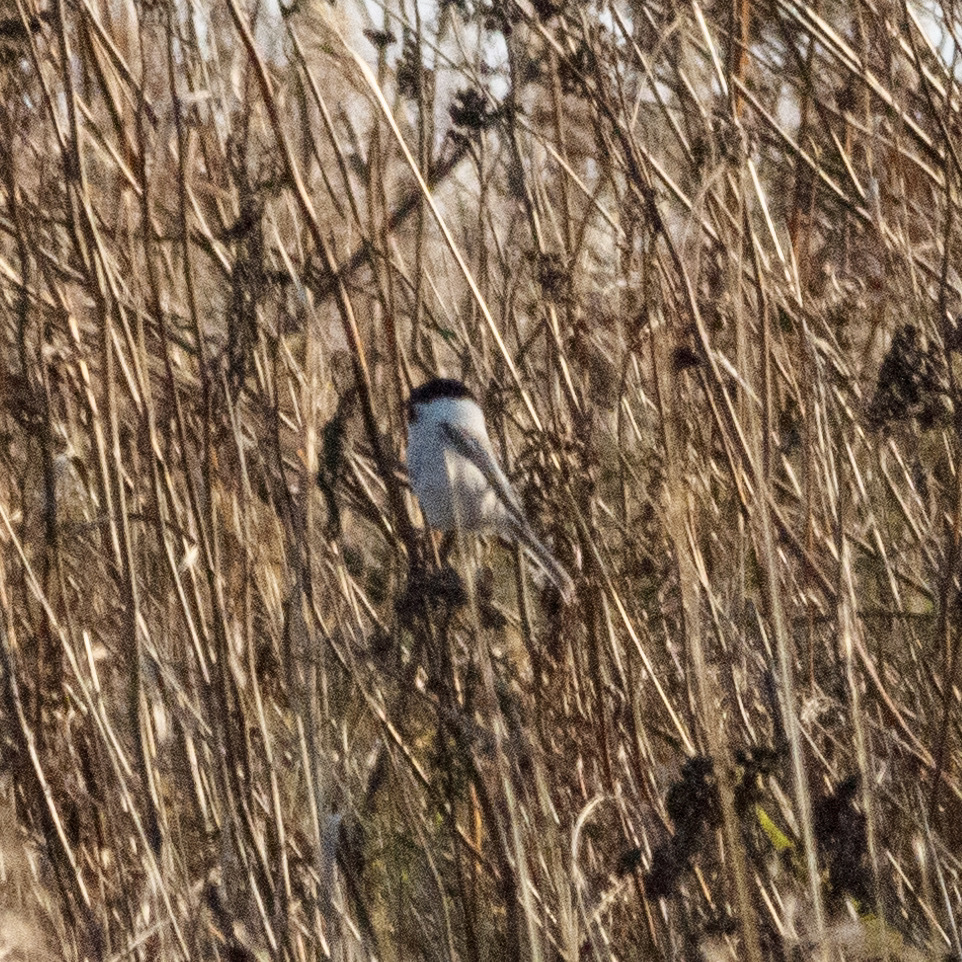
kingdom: Animalia
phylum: Chordata
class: Aves
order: Passeriformes
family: Paridae
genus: Poecile
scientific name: Poecile montanus
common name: Willow tit
